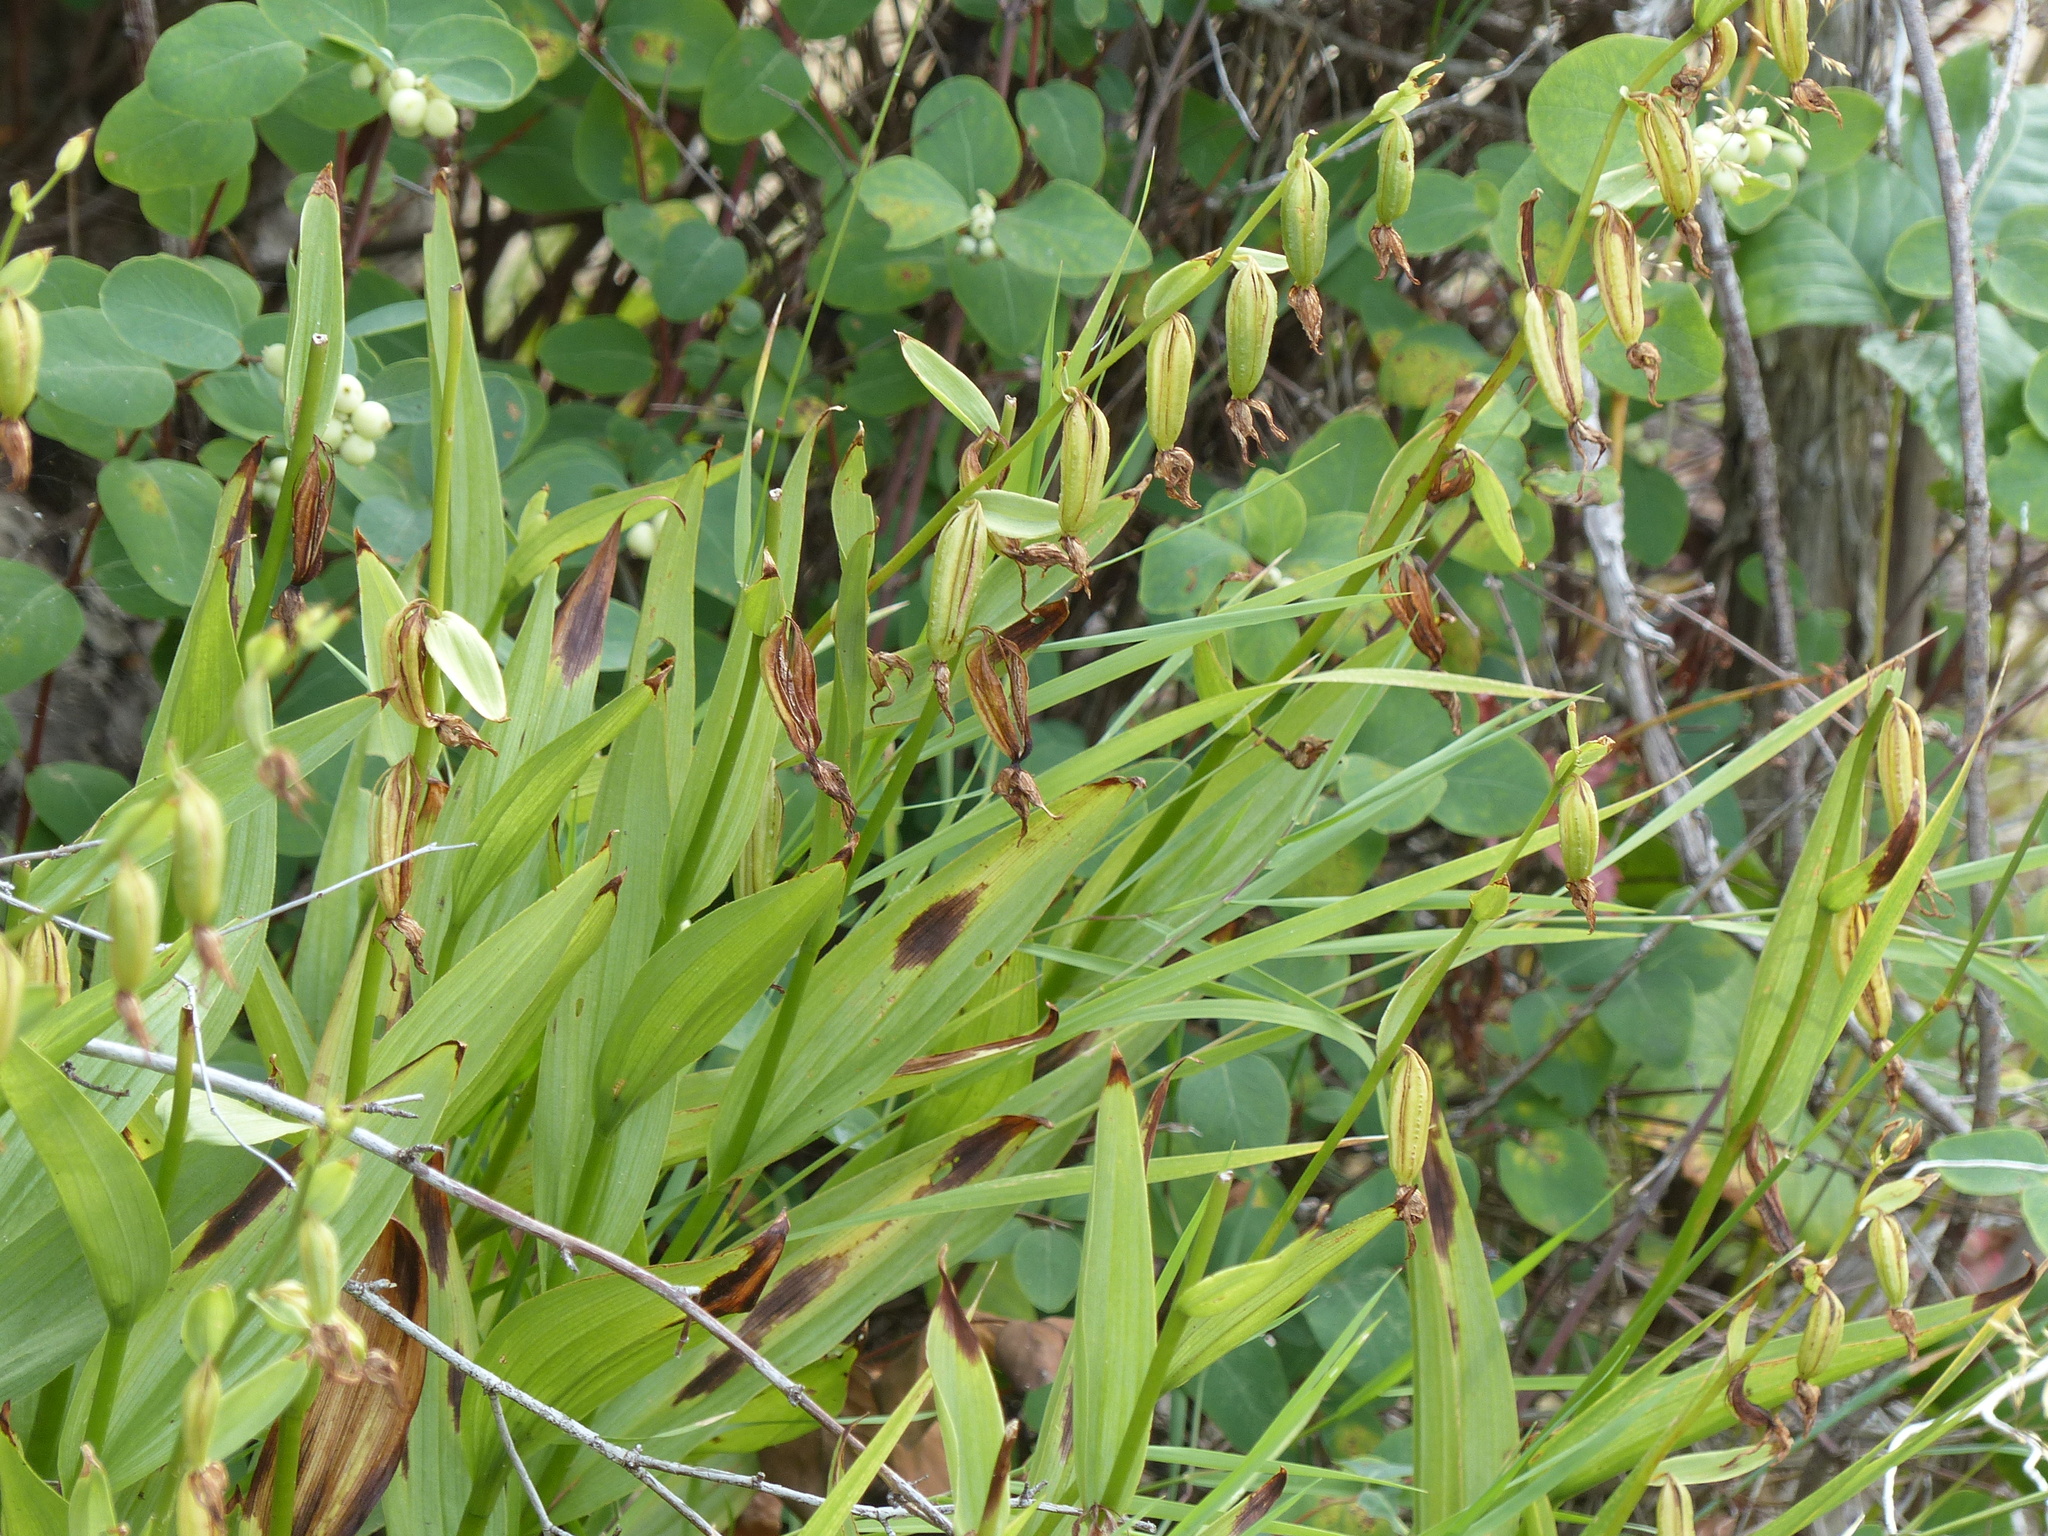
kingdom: Plantae
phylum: Tracheophyta
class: Liliopsida
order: Asparagales
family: Orchidaceae
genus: Epipactis
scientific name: Epipactis gigantea
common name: Chatterbox
